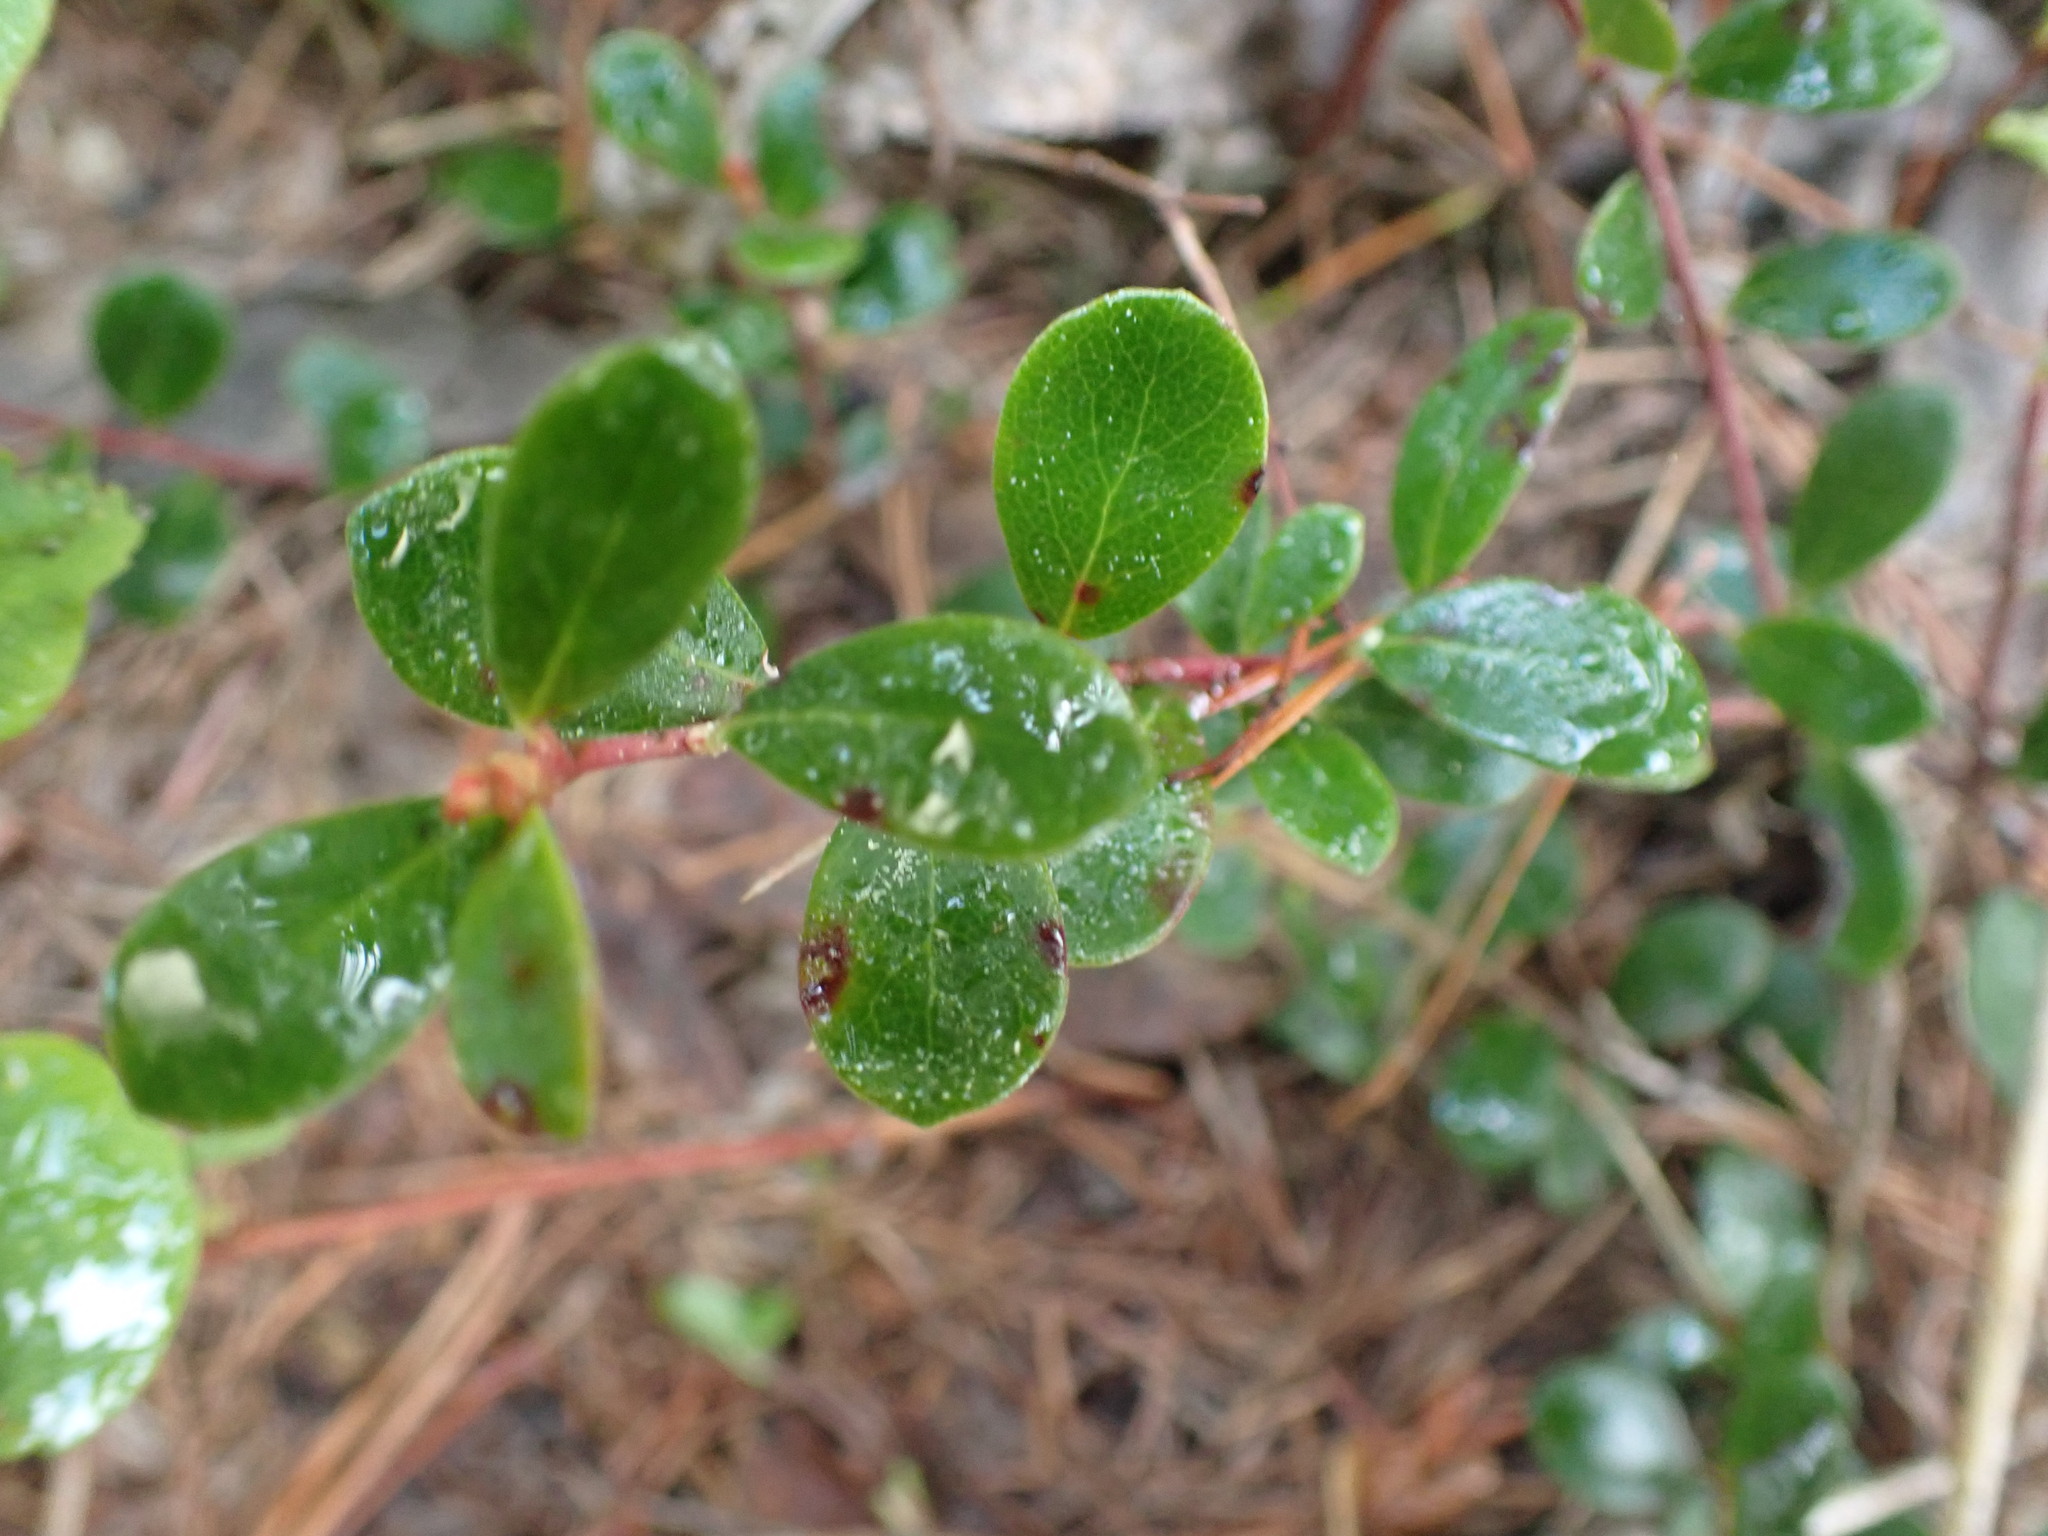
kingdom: Plantae
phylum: Tracheophyta
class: Magnoliopsida
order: Ericales
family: Ericaceae
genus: Arctostaphylos
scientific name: Arctostaphylos uva-ursi
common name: Bearberry
